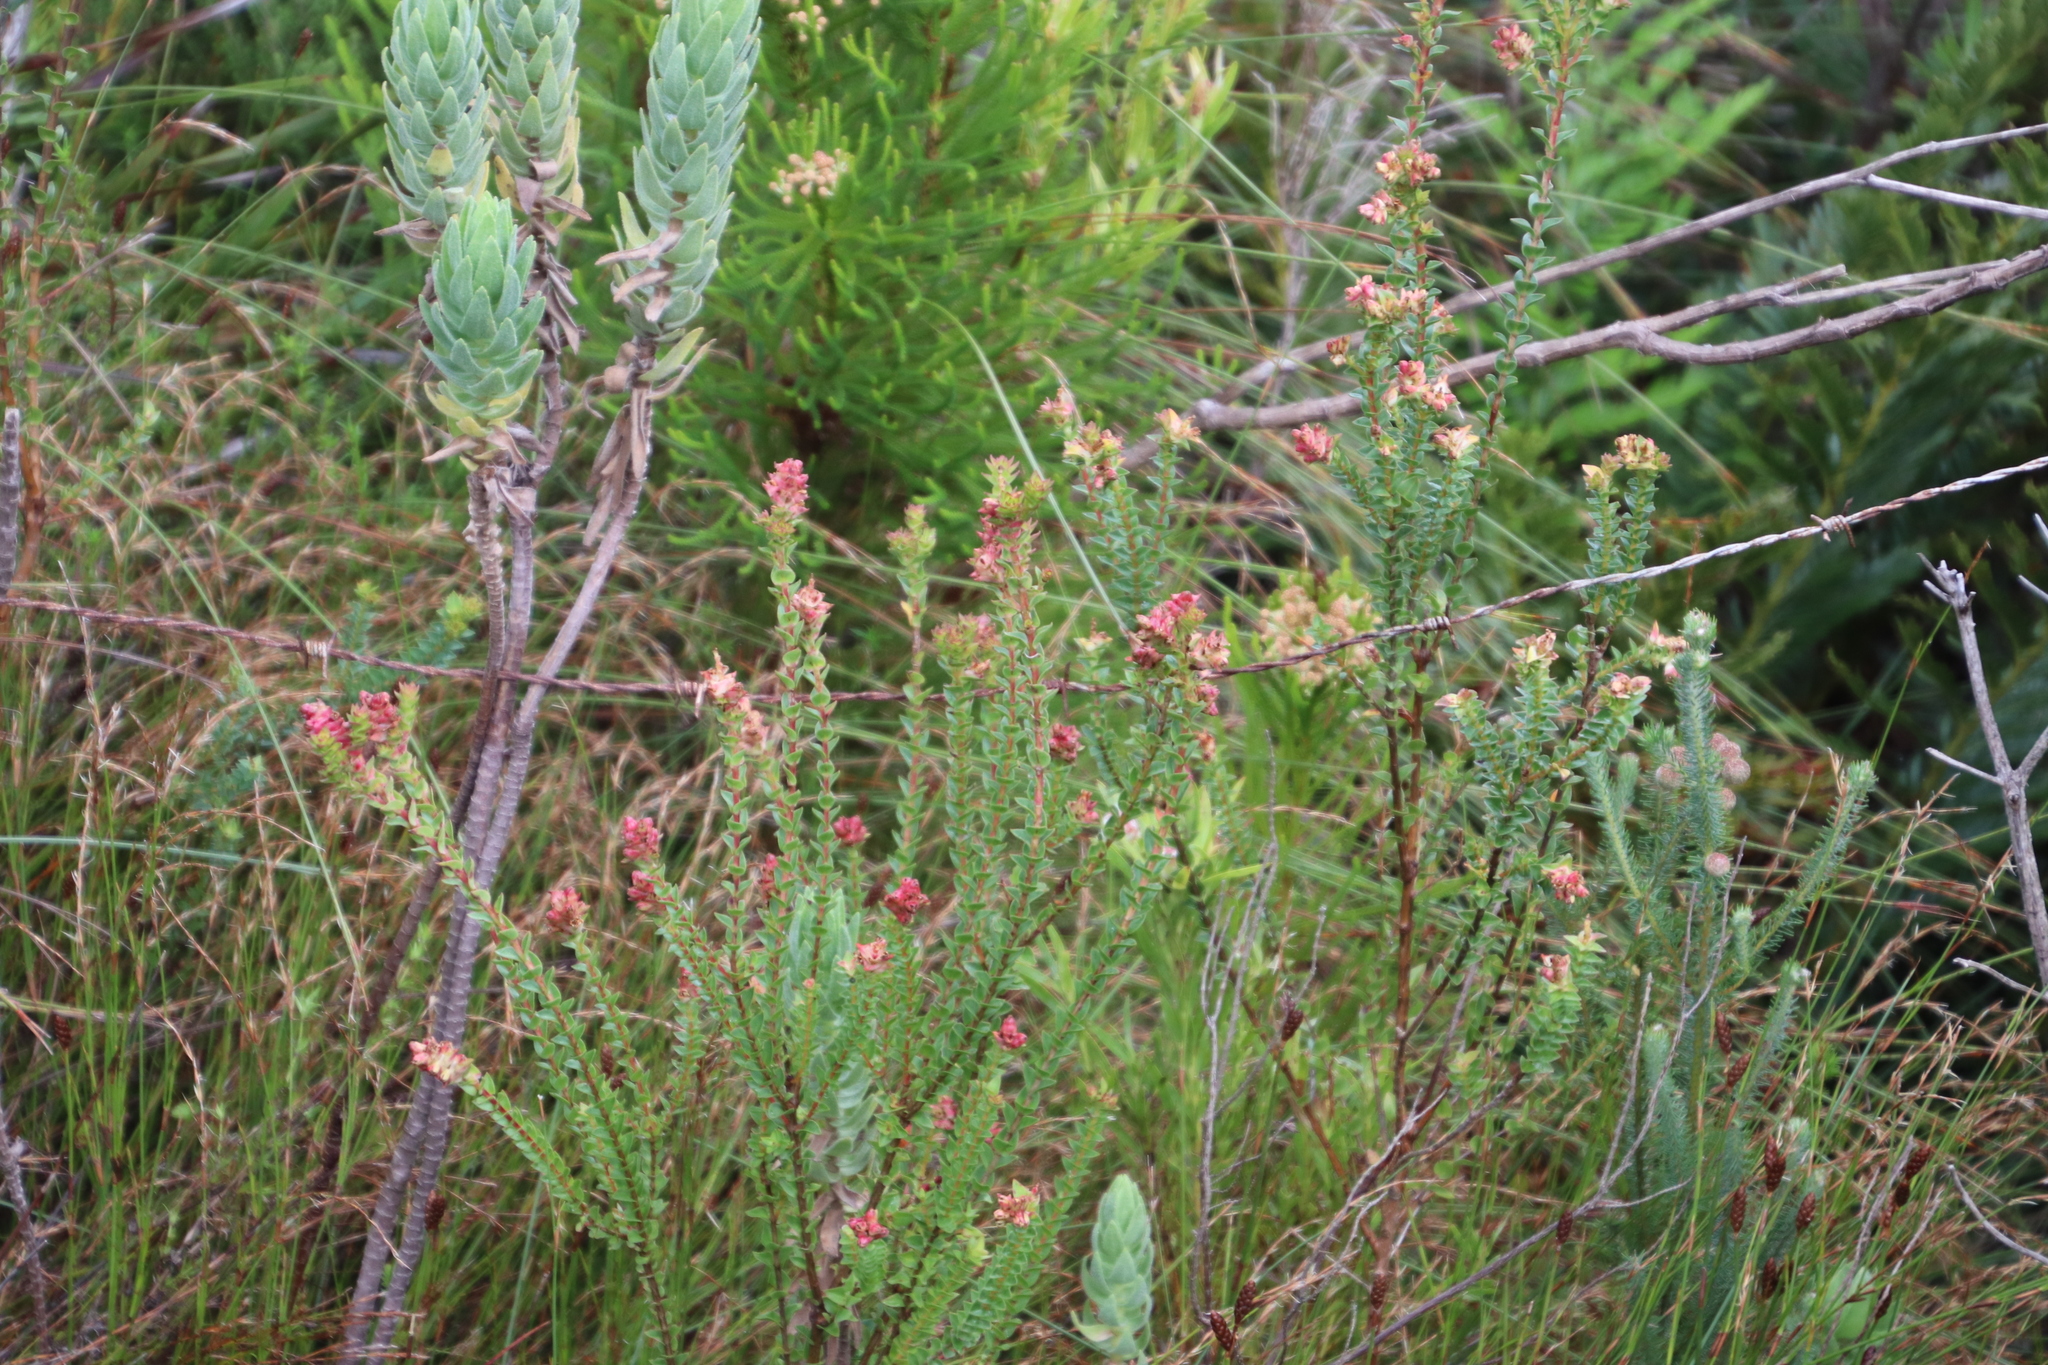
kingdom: Plantae
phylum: Tracheophyta
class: Magnoliopsida
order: Myrtales
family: Penaeaceae
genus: Penaea
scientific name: Penaea cneorum
